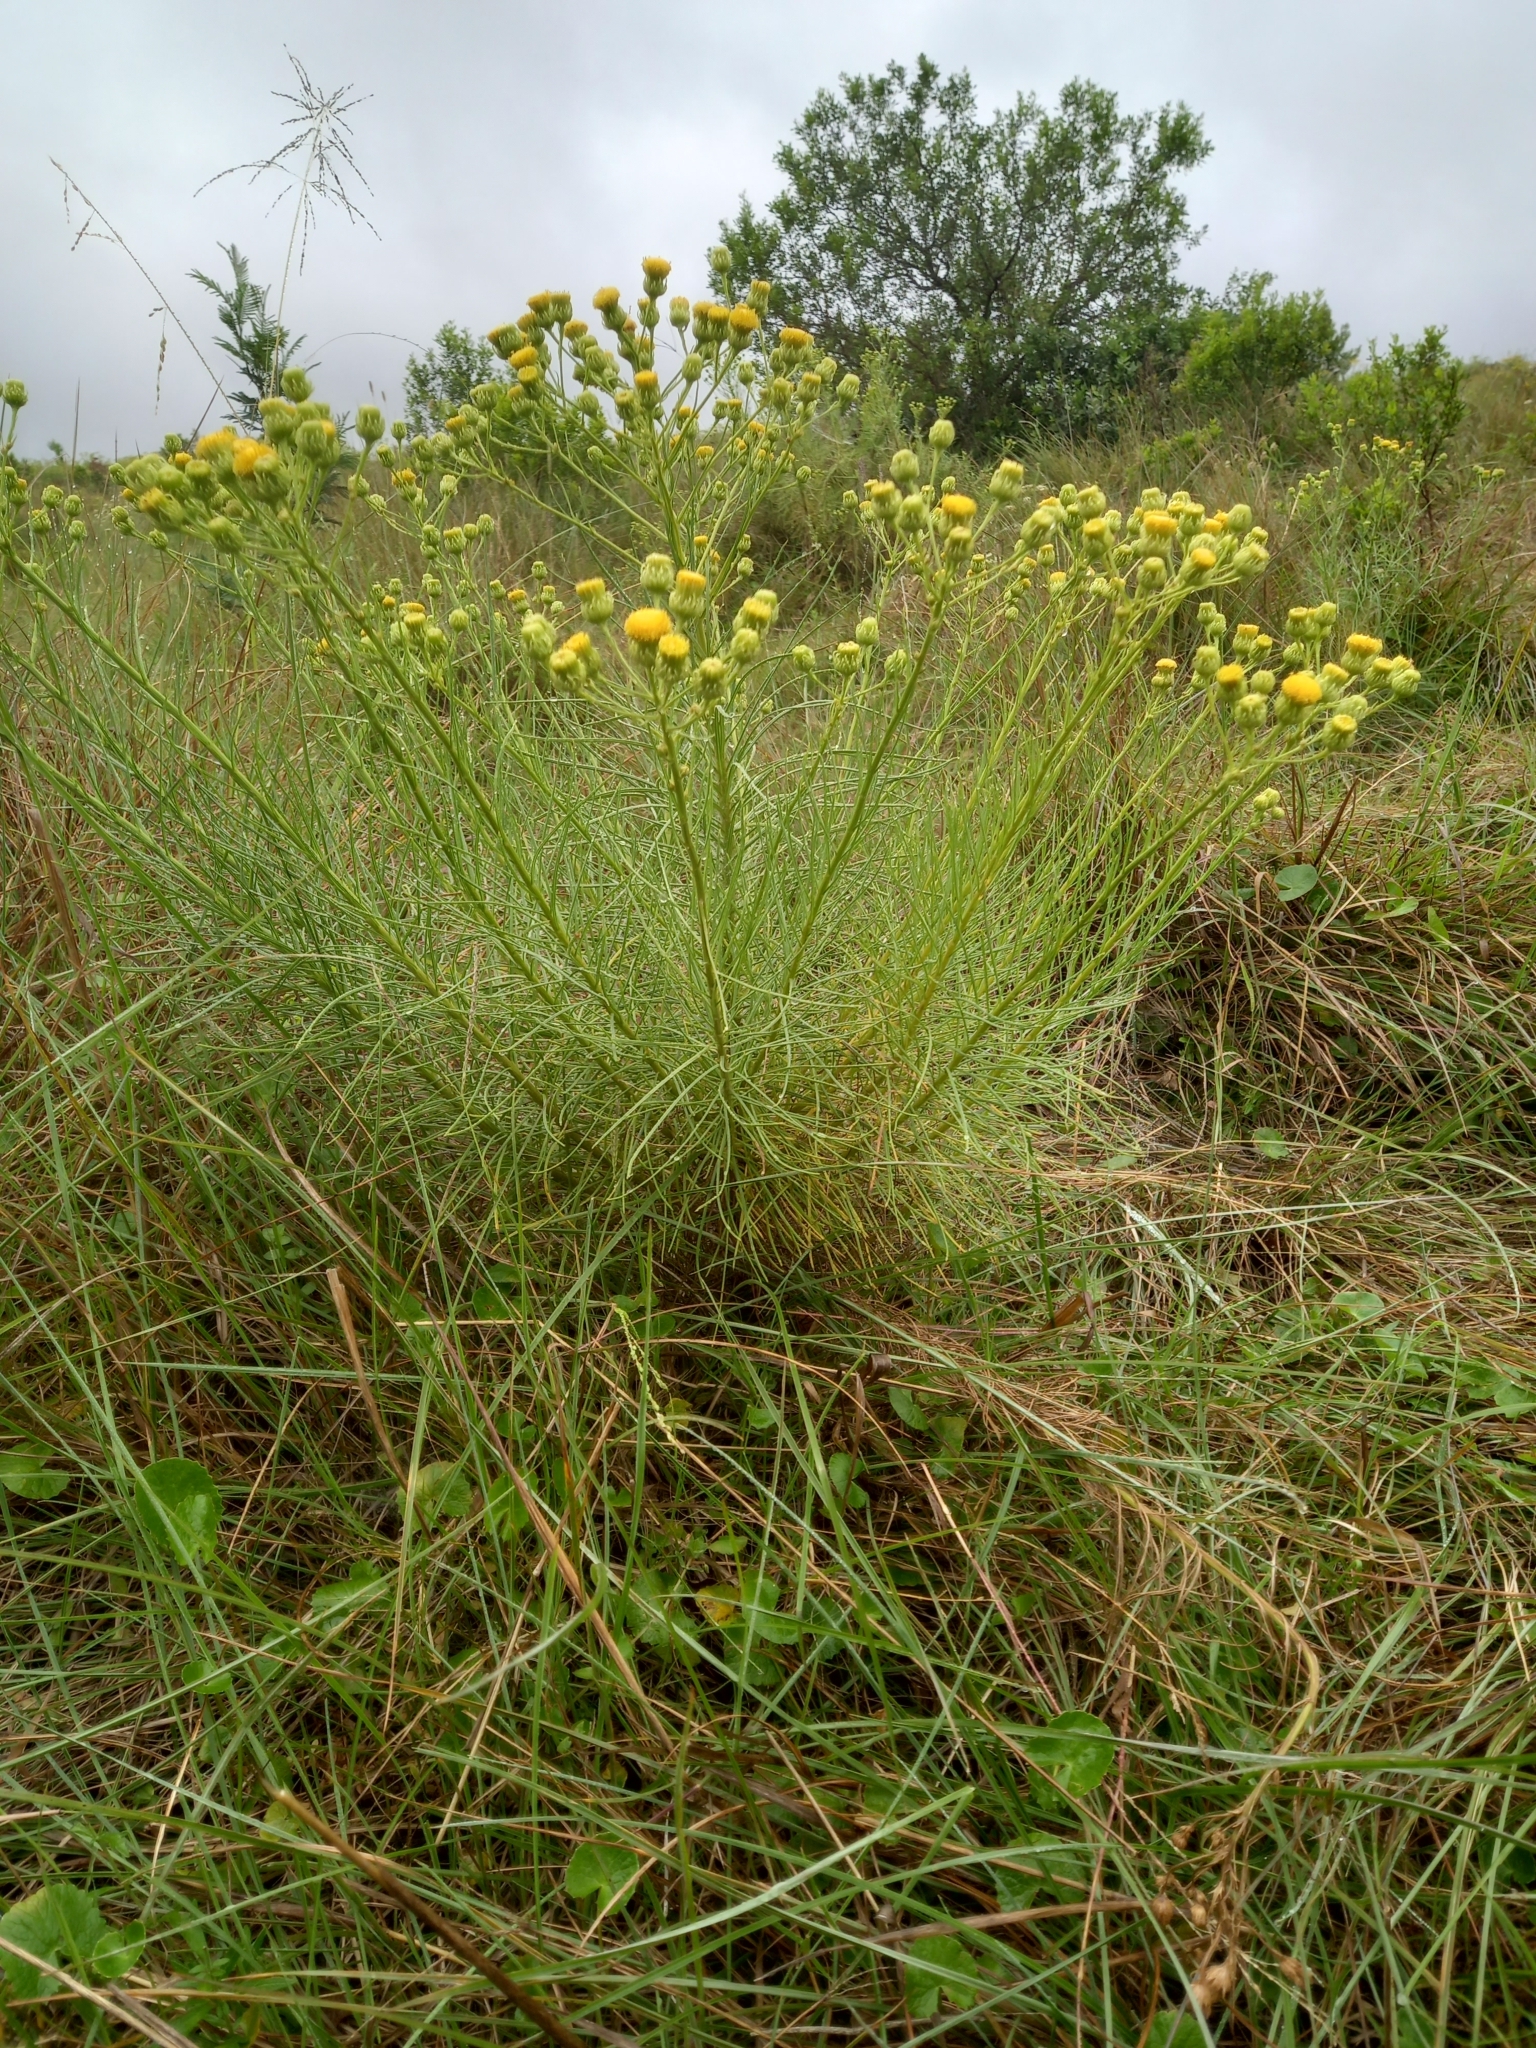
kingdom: Plantae
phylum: Tracheophyta
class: Magnoliopsida
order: Asterales
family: Asteraceae
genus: Senecio
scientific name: Senecio chrysocoma
